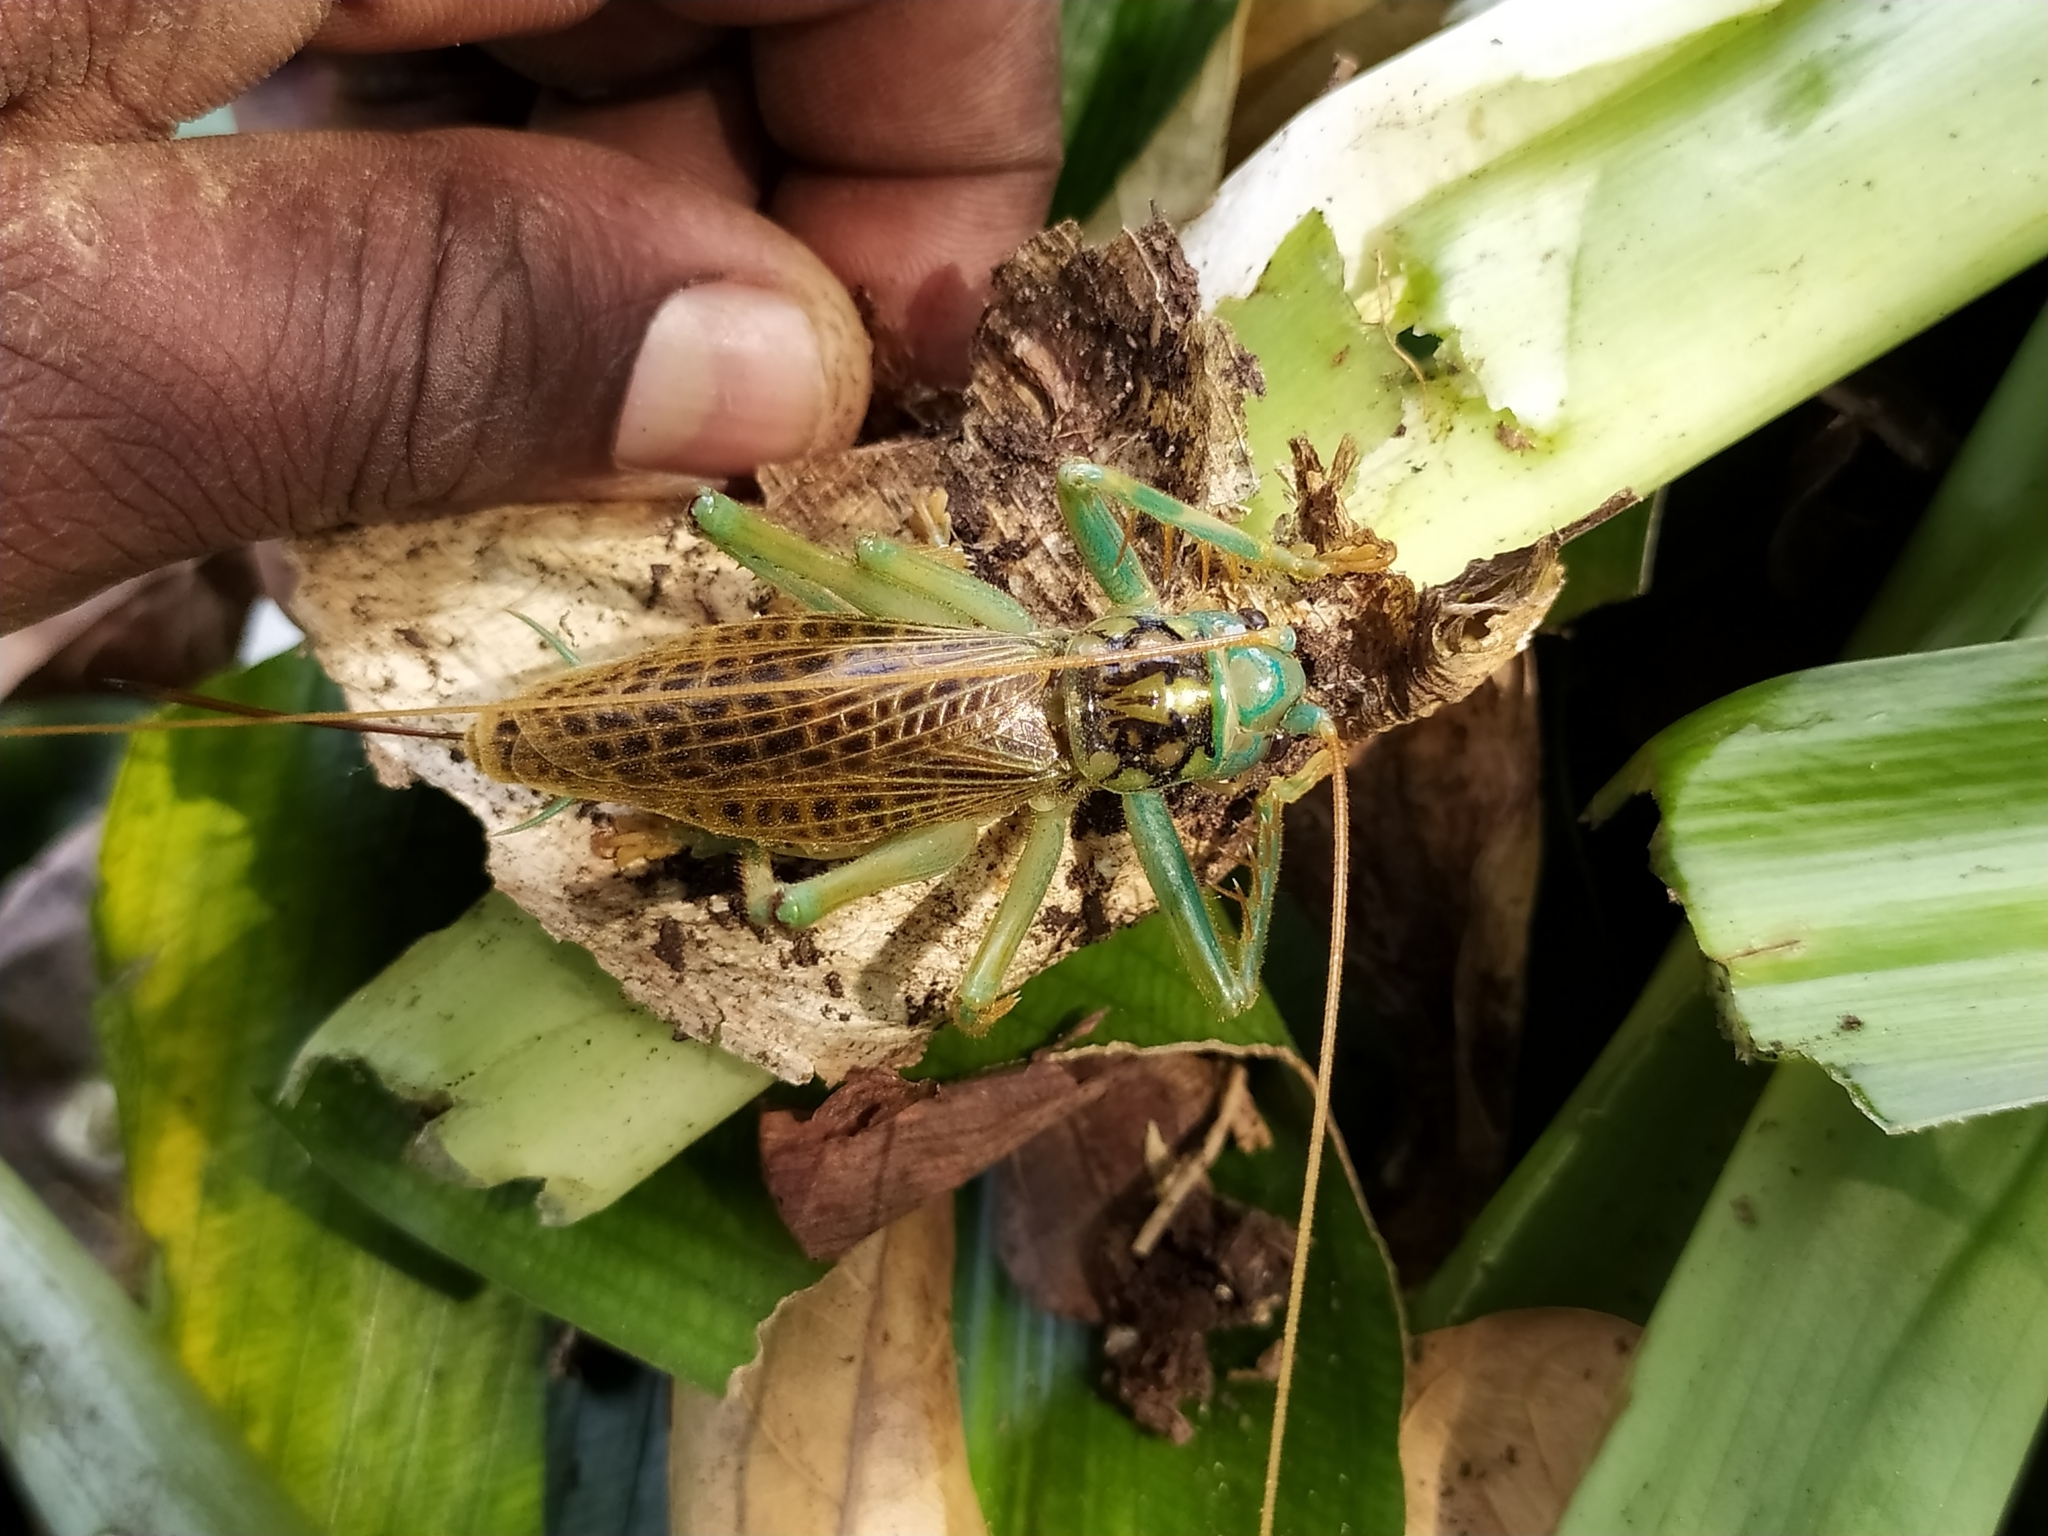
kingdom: Animalia
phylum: Arthropoda
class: Insecta
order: Orthoptera
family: Gryllacrididae
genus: Eugryllacris
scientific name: Eugryllacris panteli
